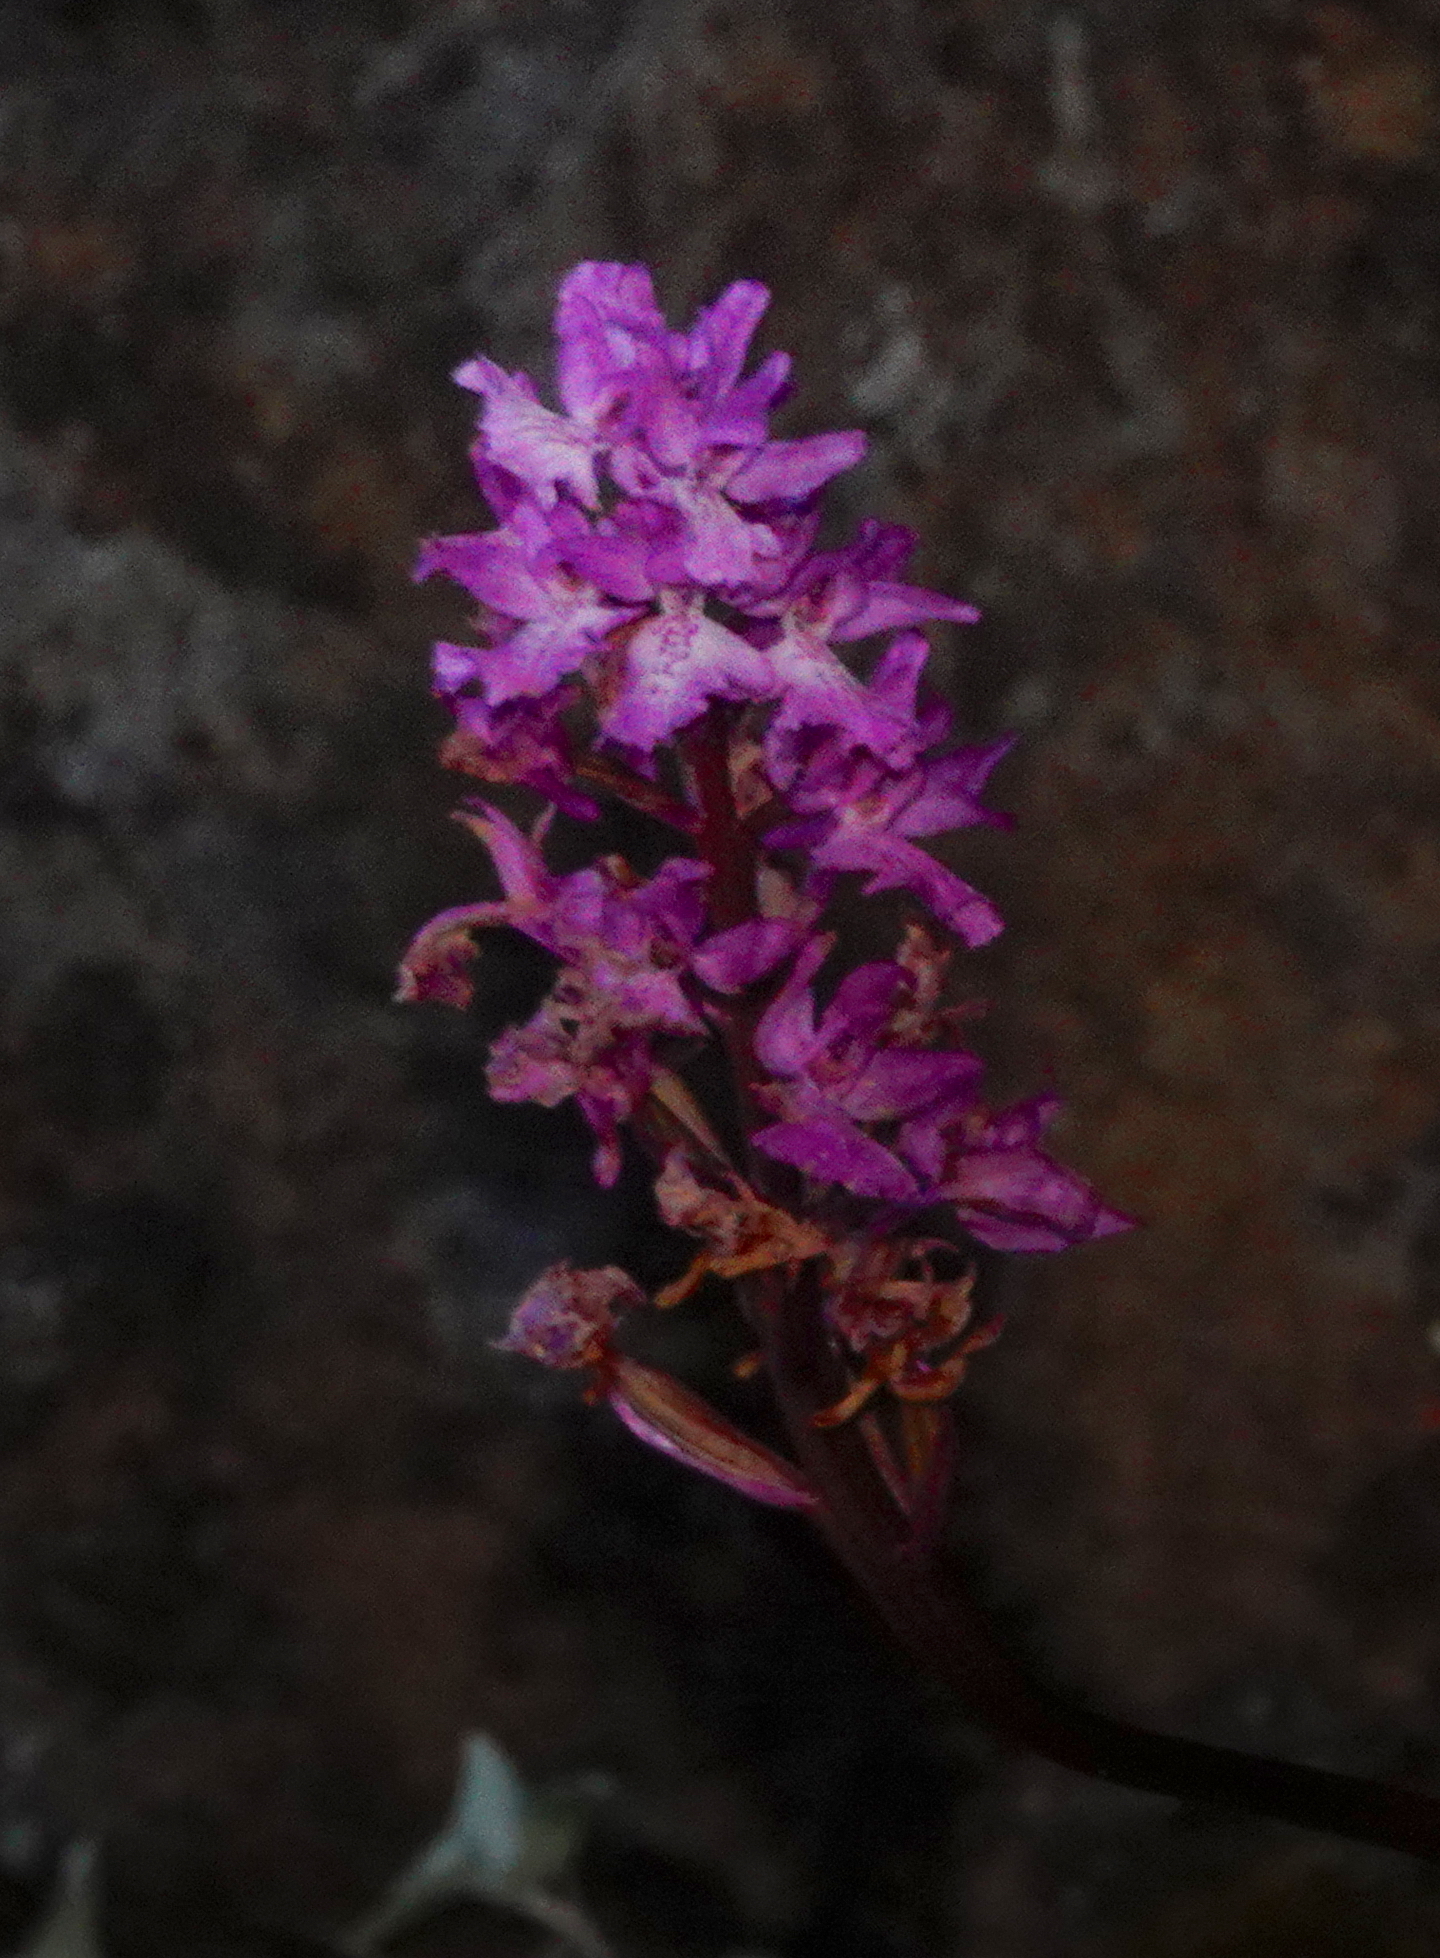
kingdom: Plantae
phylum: Tracheophyta
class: Liliopsida
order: Asparagales
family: Orchidaceae
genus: Orchis
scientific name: Orchis mascula
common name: Early-purple orchid
